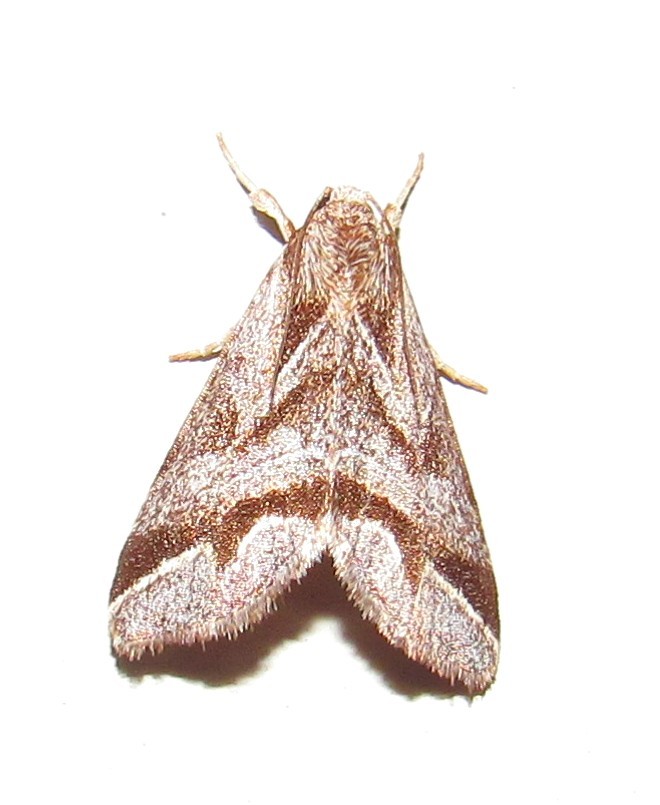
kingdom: Animalia
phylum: Arthropoda
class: Insecta
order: Lepidoptera
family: Noctuidae
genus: Phuphena
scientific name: Phuphena petrovna
